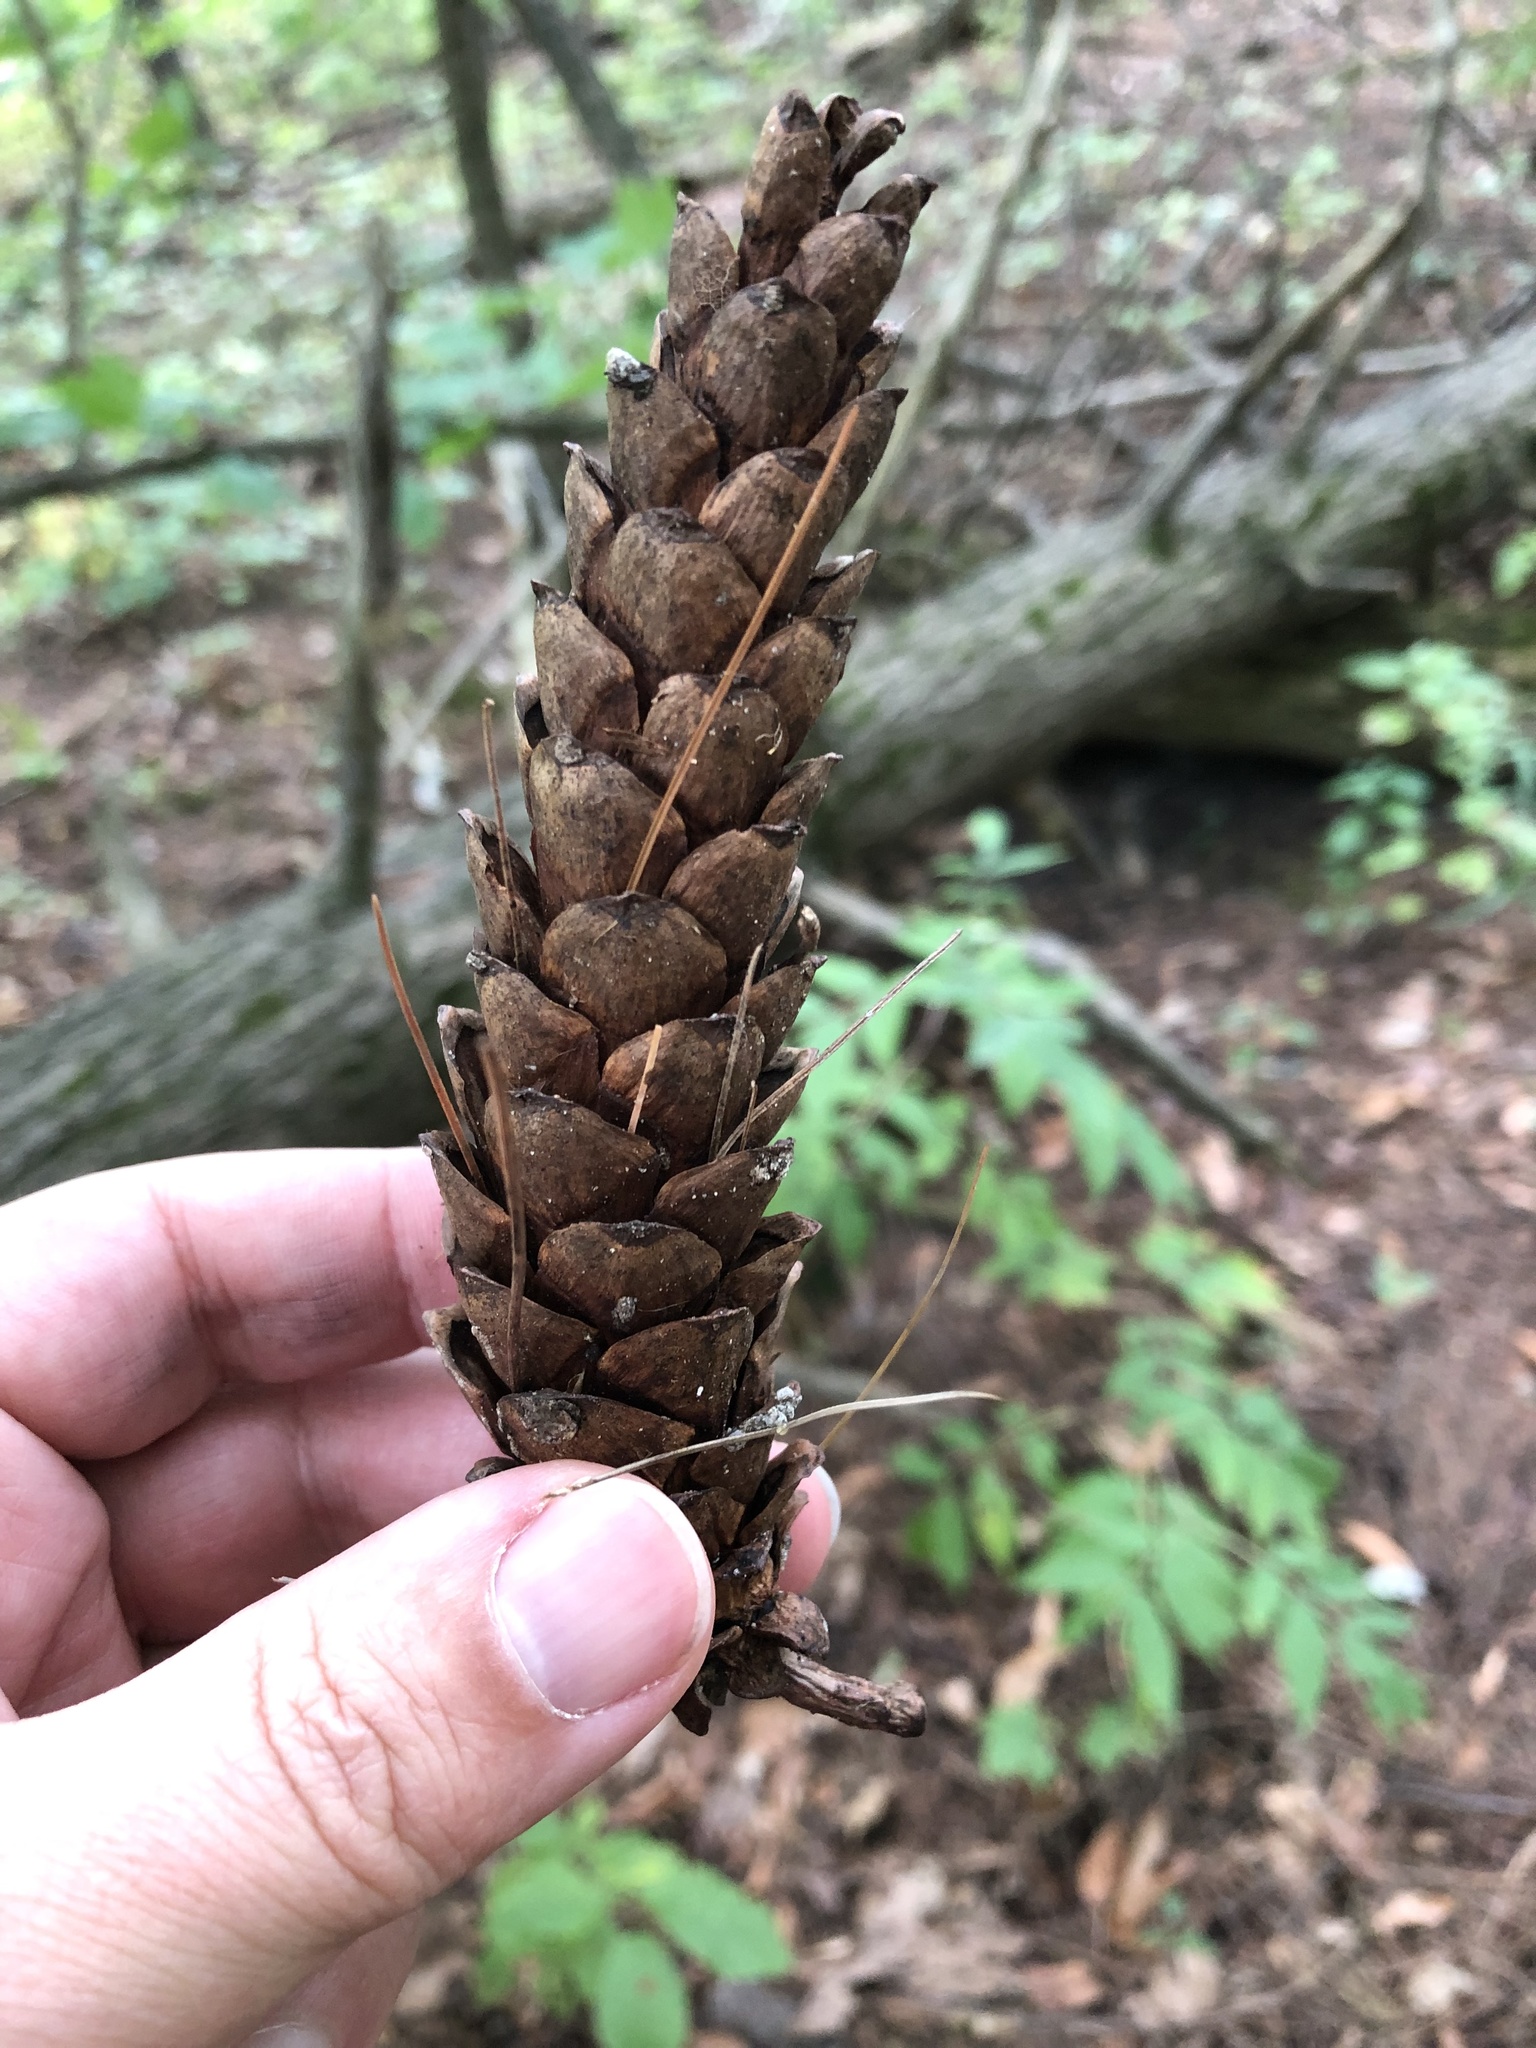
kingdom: Plantae
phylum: Tracheophyta
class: Pinopsida
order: Pinales
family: Pinaceae
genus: Pinus
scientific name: Pinus strobus
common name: Weymouth pine
